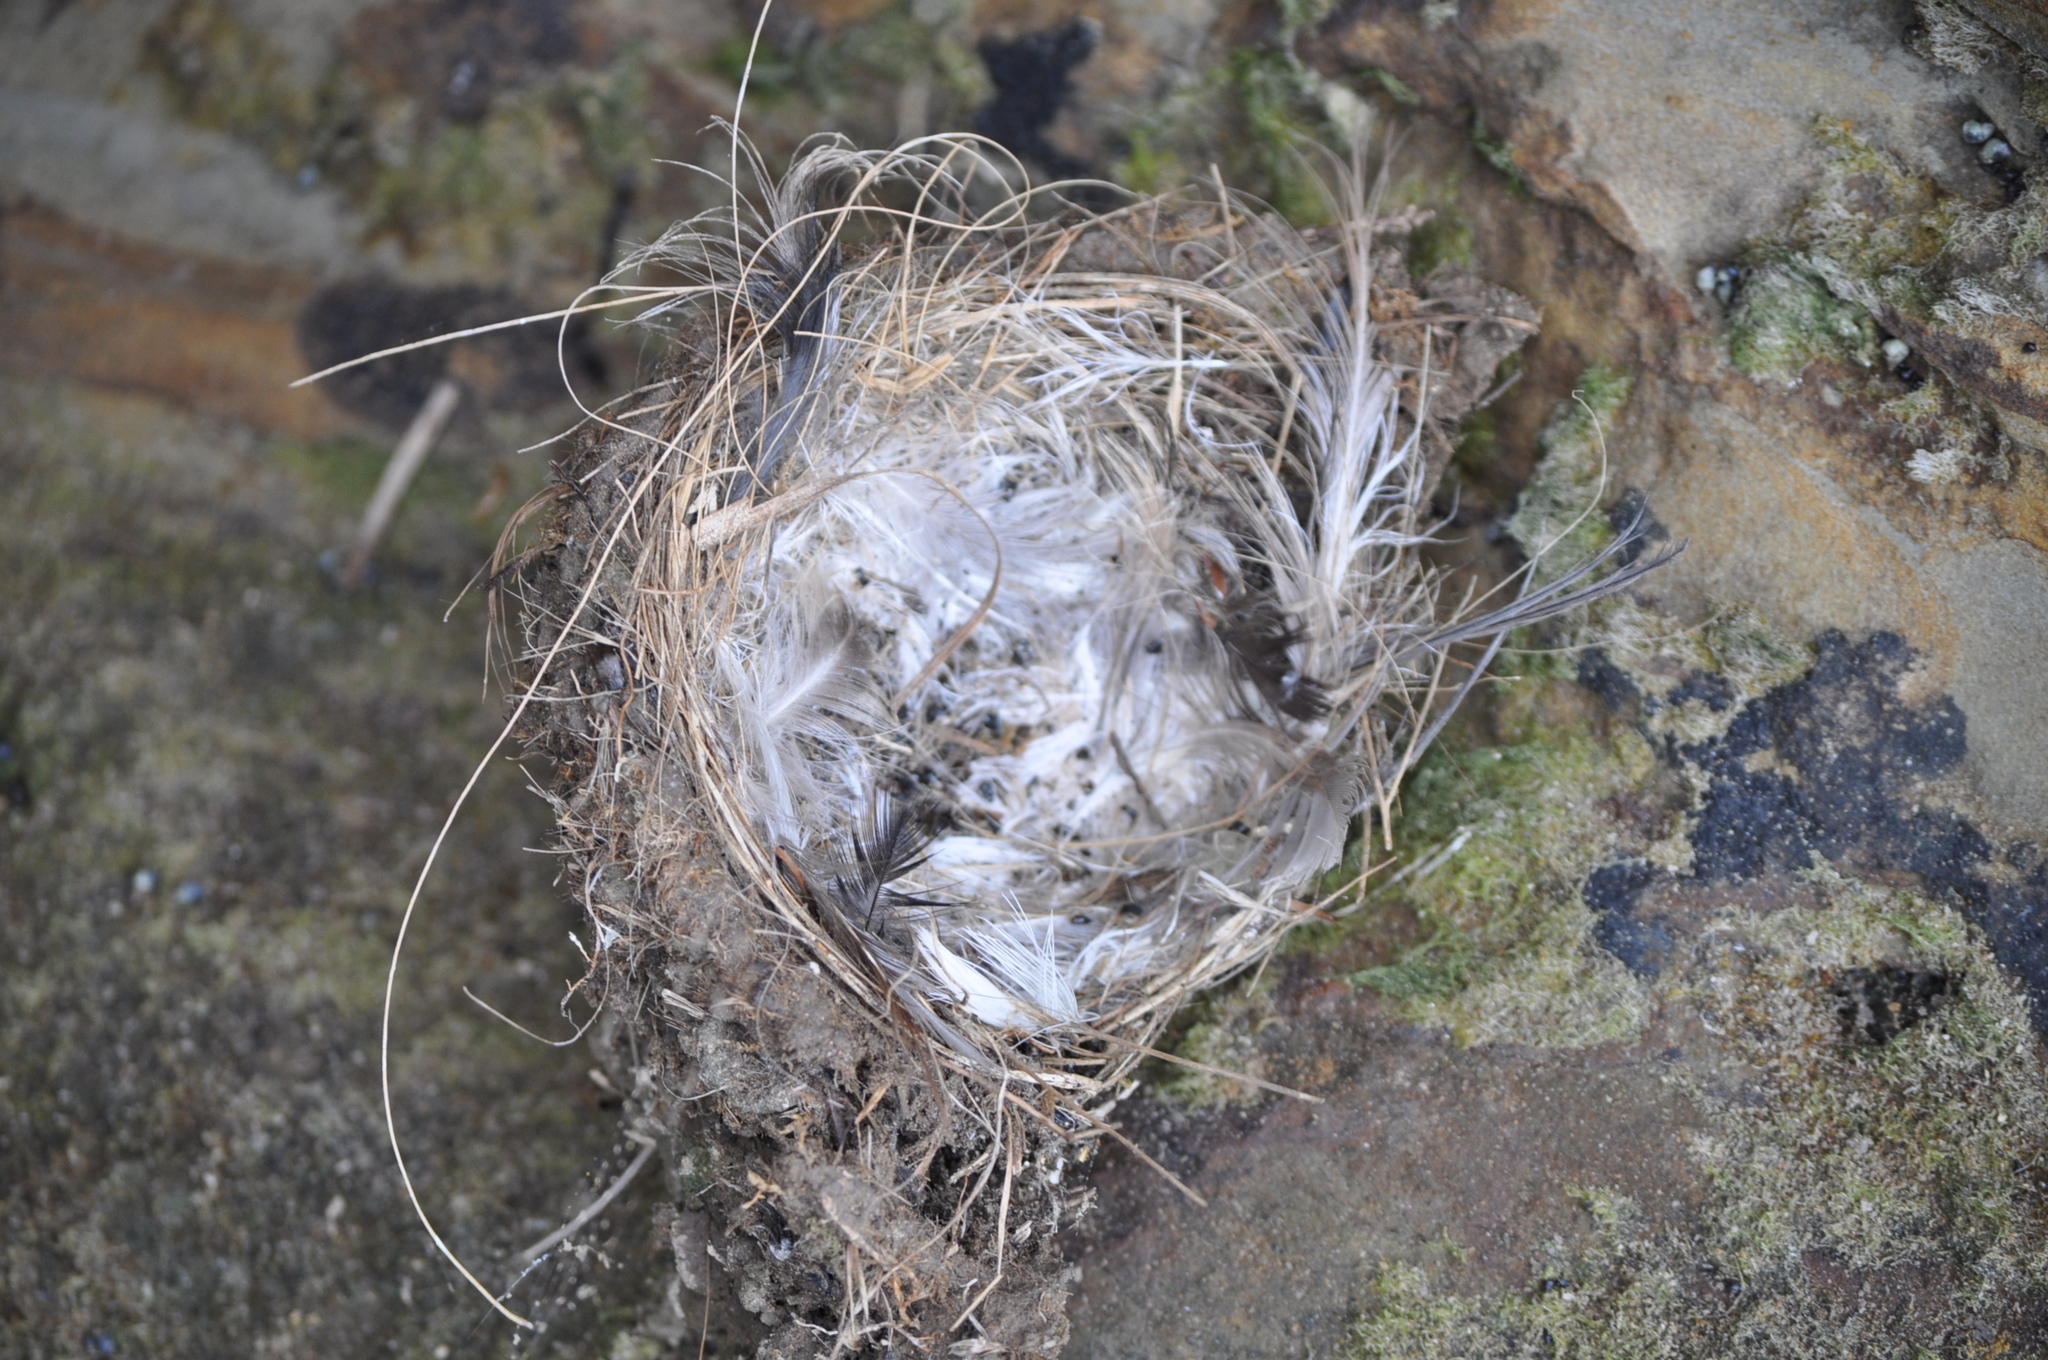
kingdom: Animalia
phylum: Chordata
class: Aves
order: Passeriformes
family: Hirundinidae
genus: Hirundo
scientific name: Hirundo neoxena
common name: Welcome swallow
